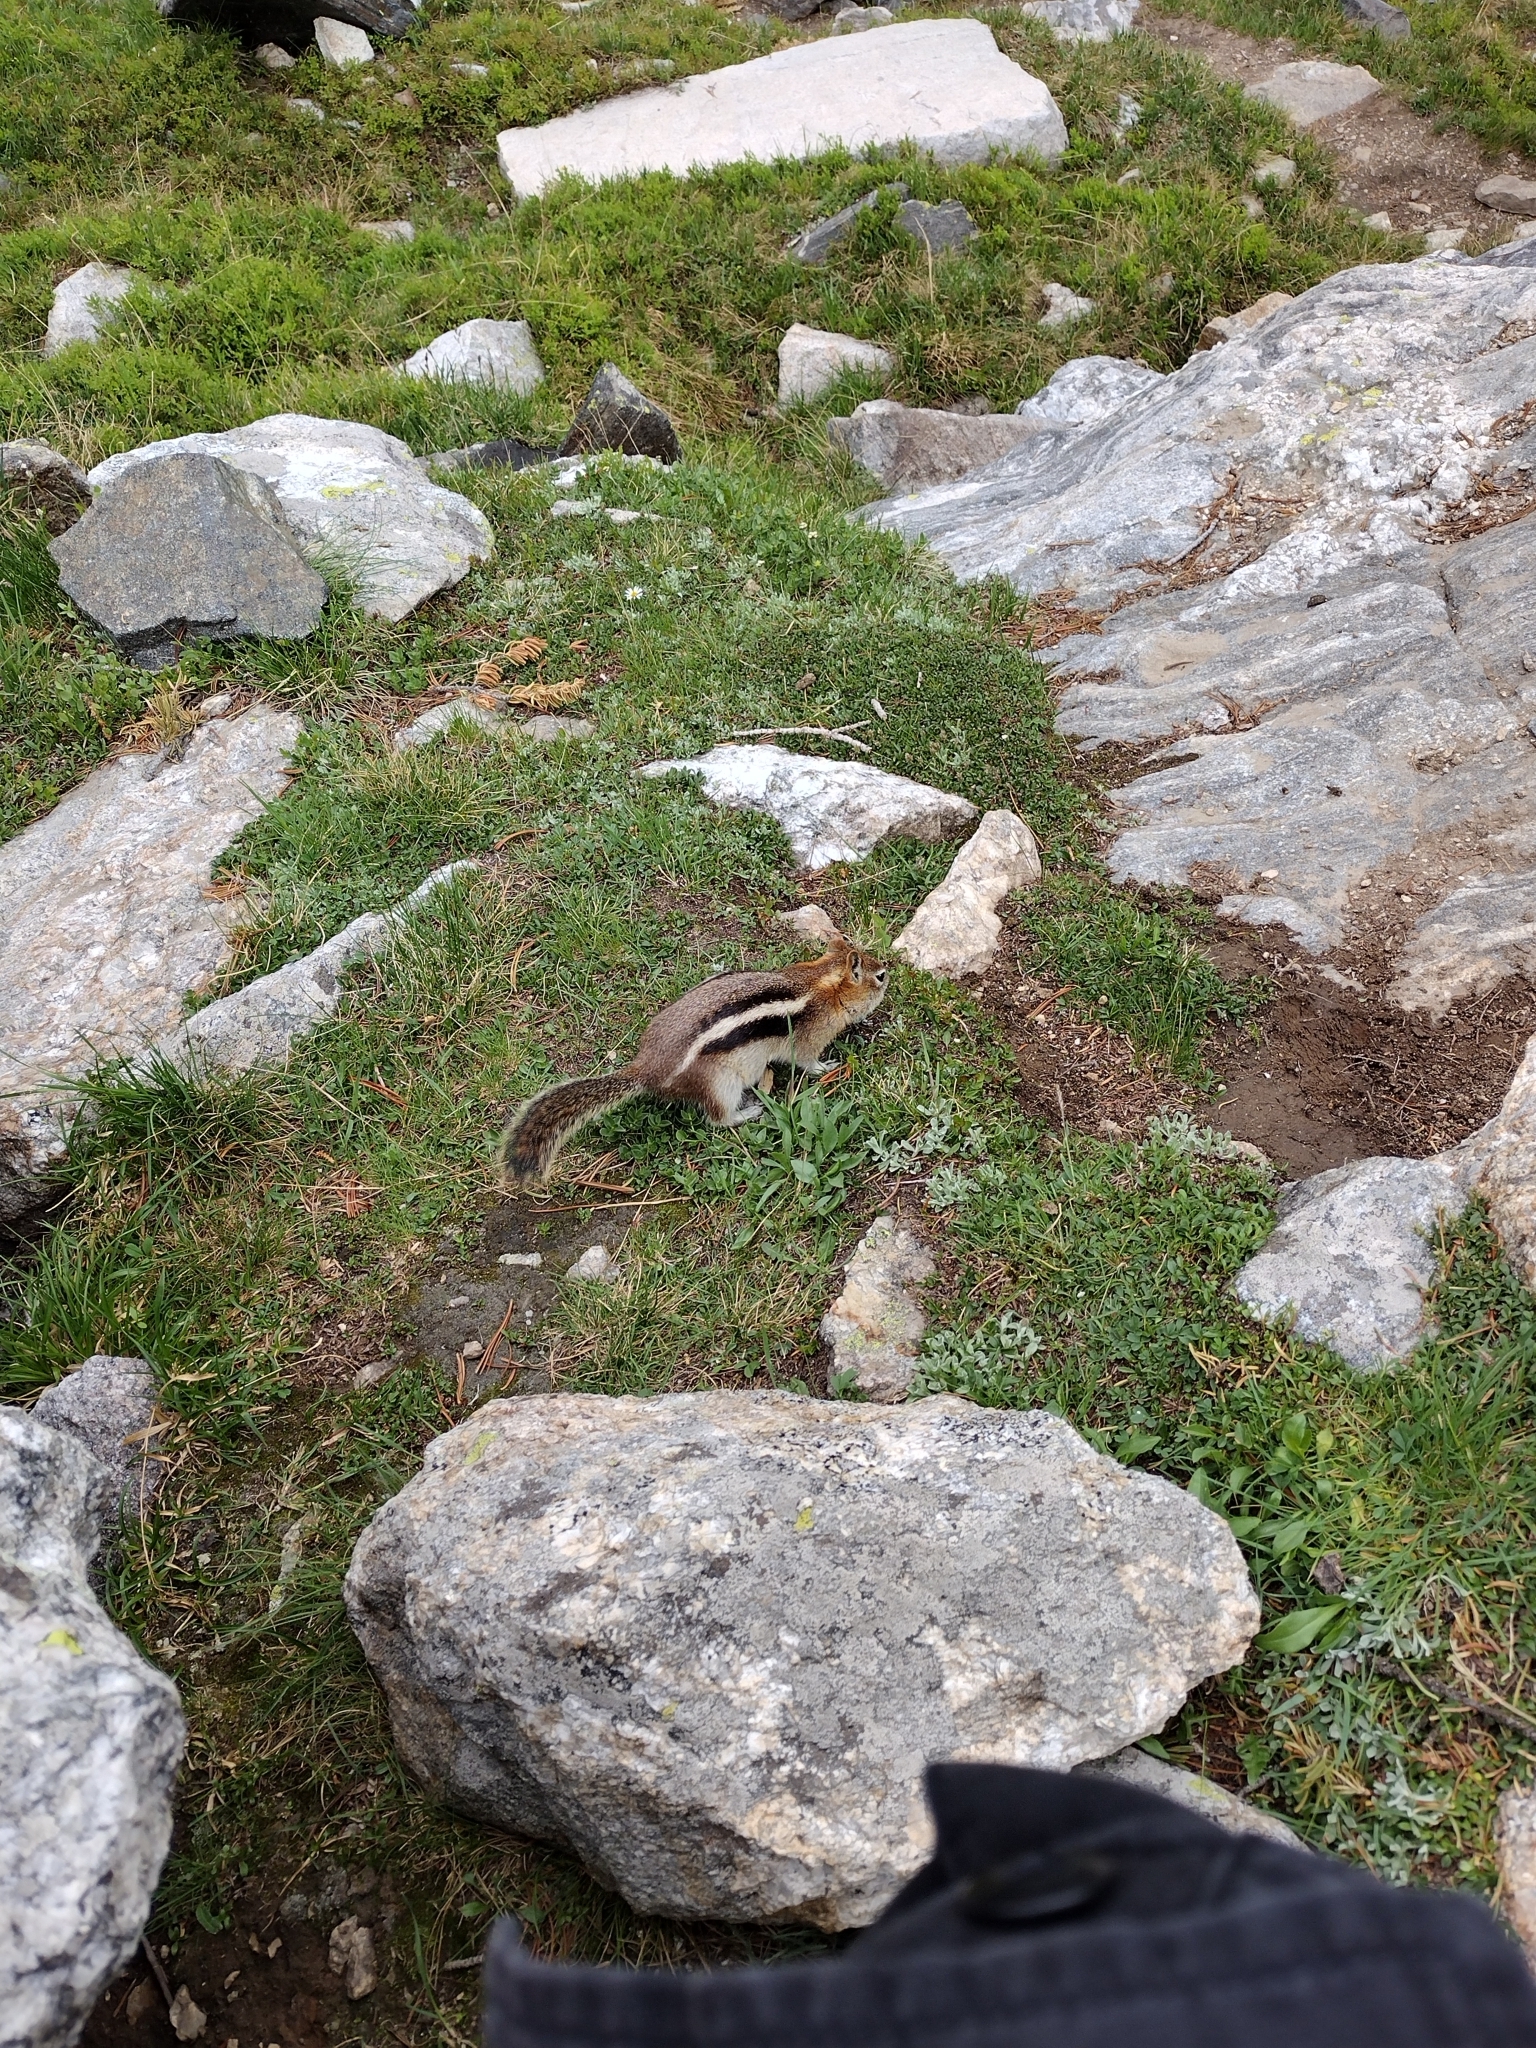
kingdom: Animalia
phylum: Chordata
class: Mammalia
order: Rodentia
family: Sciuridae
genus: Callospermophilus
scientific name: Callospermophilus lateralis
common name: Golden-mantled ground squirrel
